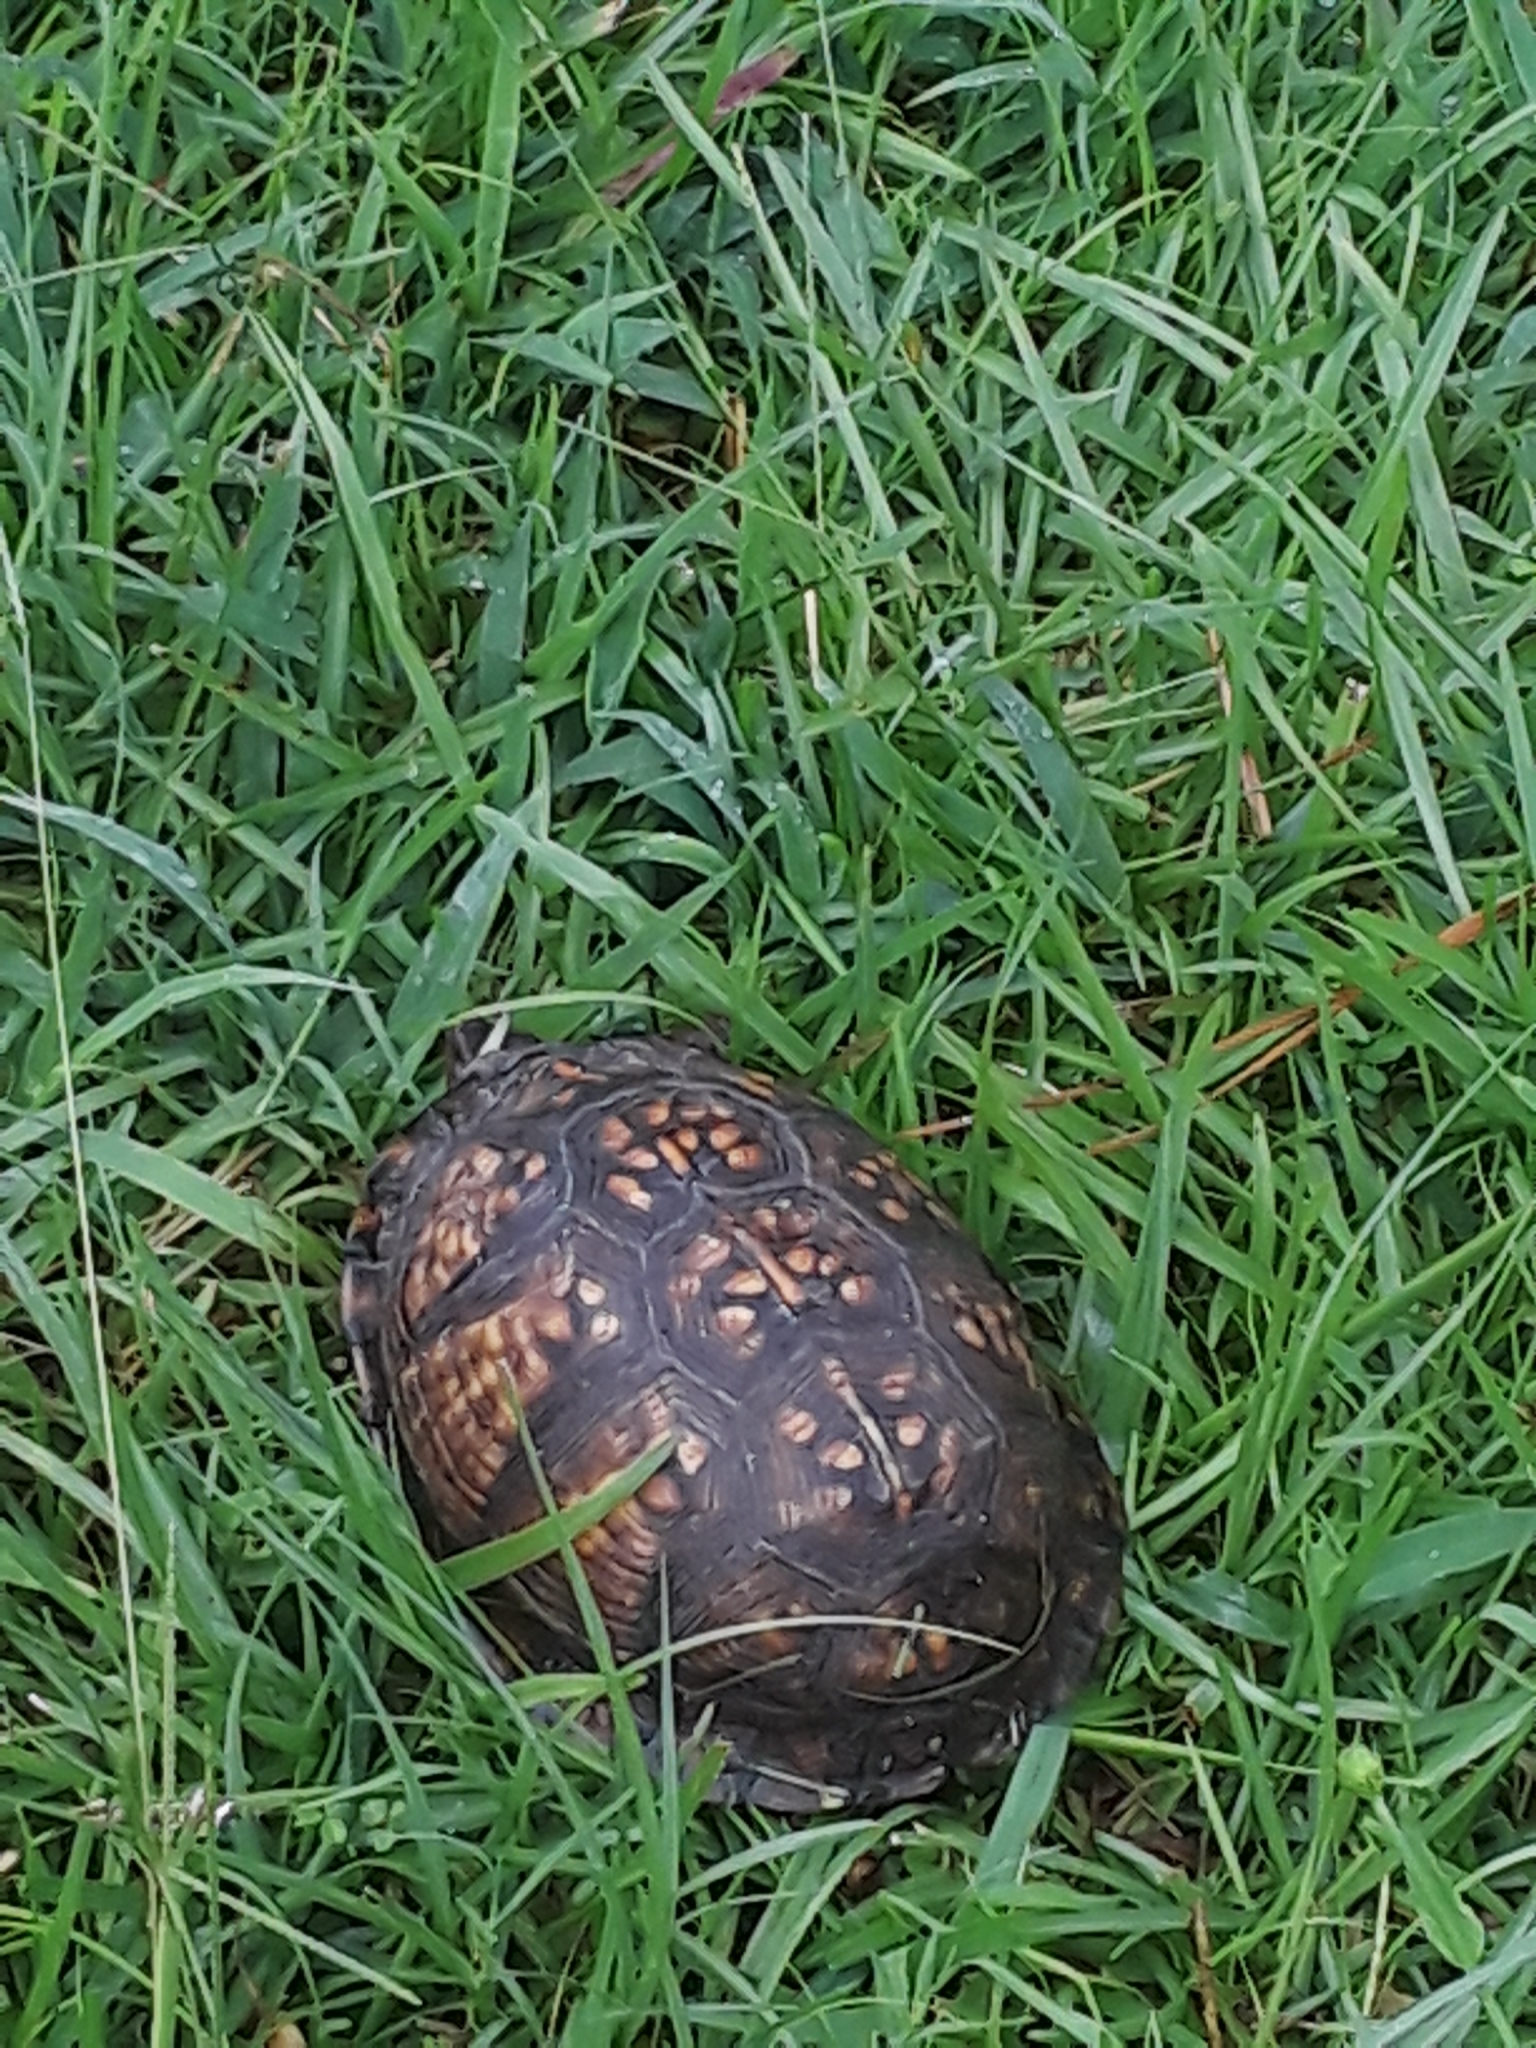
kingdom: Animalia
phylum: Chordata
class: Testudines
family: Emydidae
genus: Terrapene
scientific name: Terrapene carolina
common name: Common box turtle
